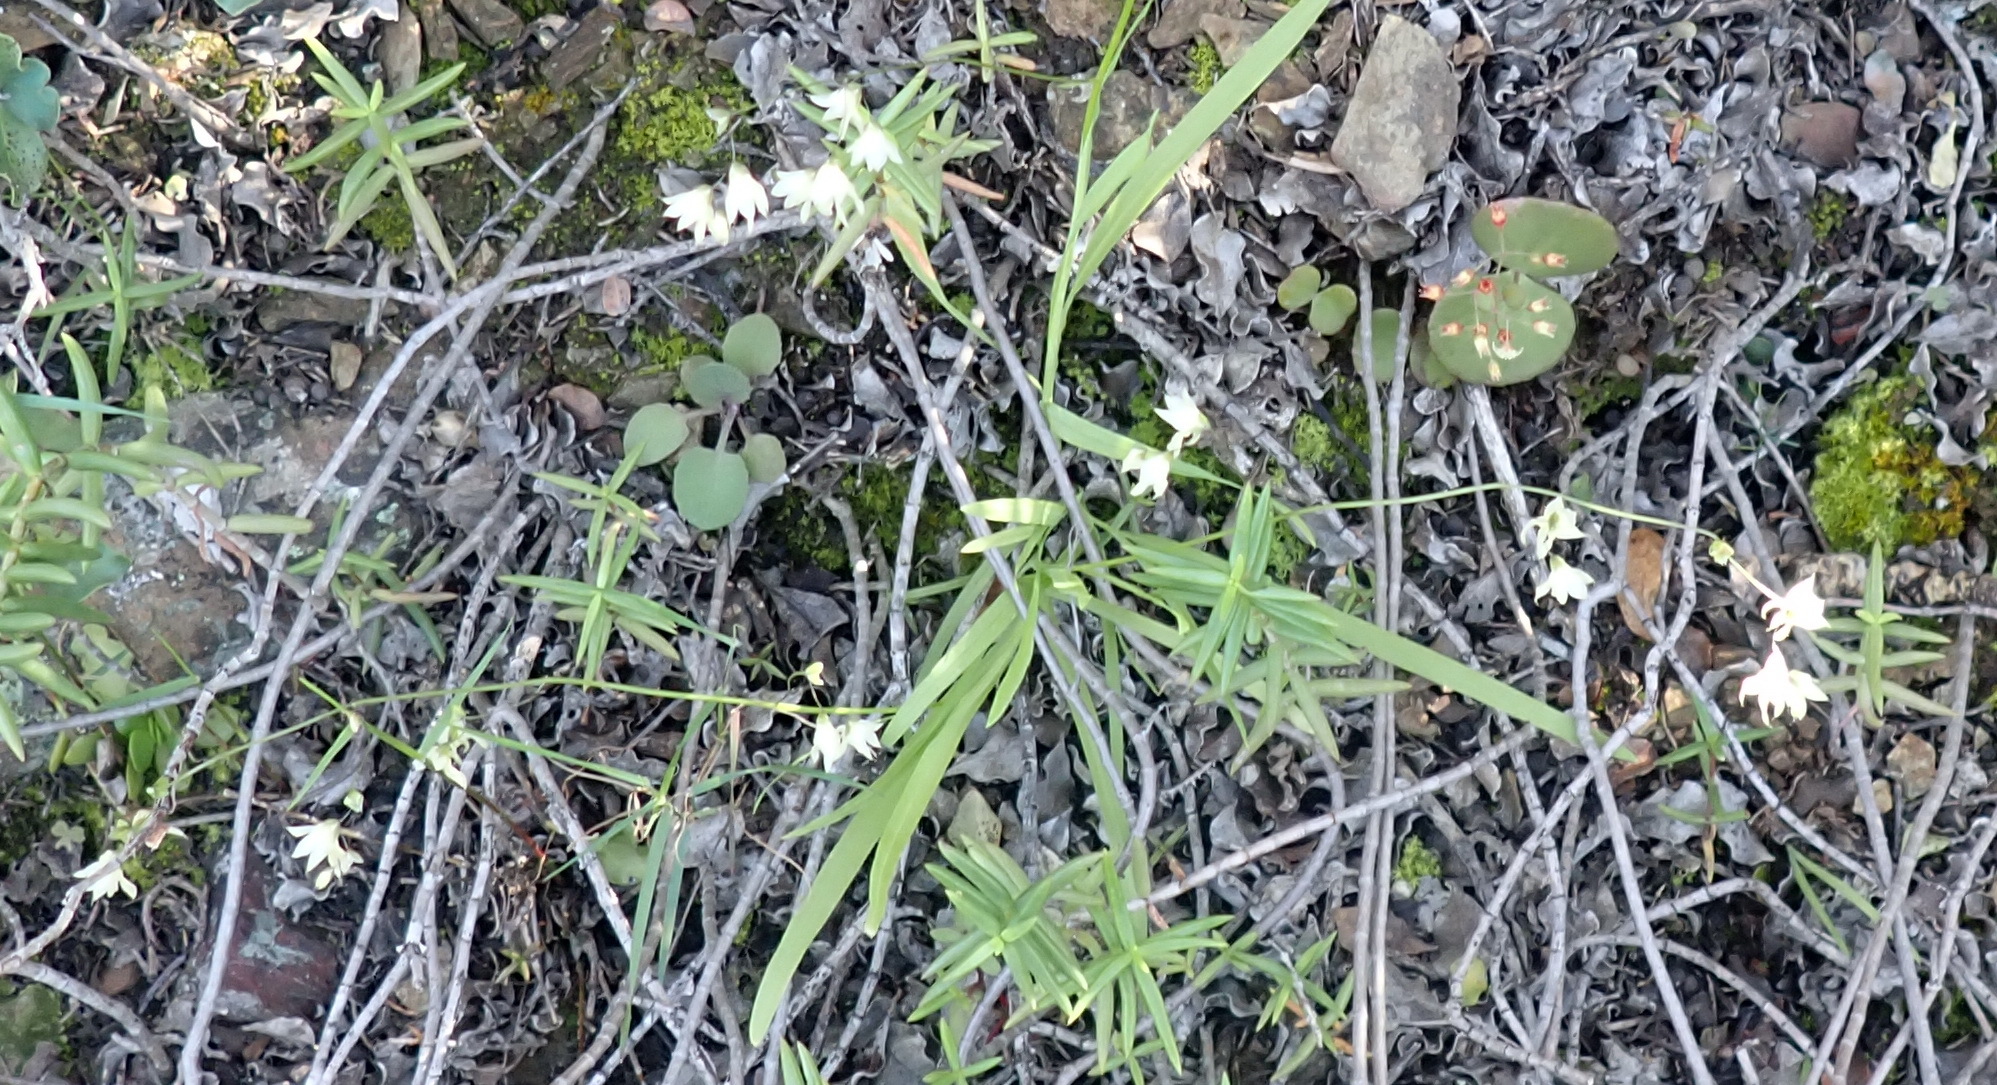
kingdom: Plantae
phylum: Tracheophyta
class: Liliopsida
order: Asparagales
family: Iridaceae
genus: Melasphaerula
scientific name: Melasphaerula graminea
